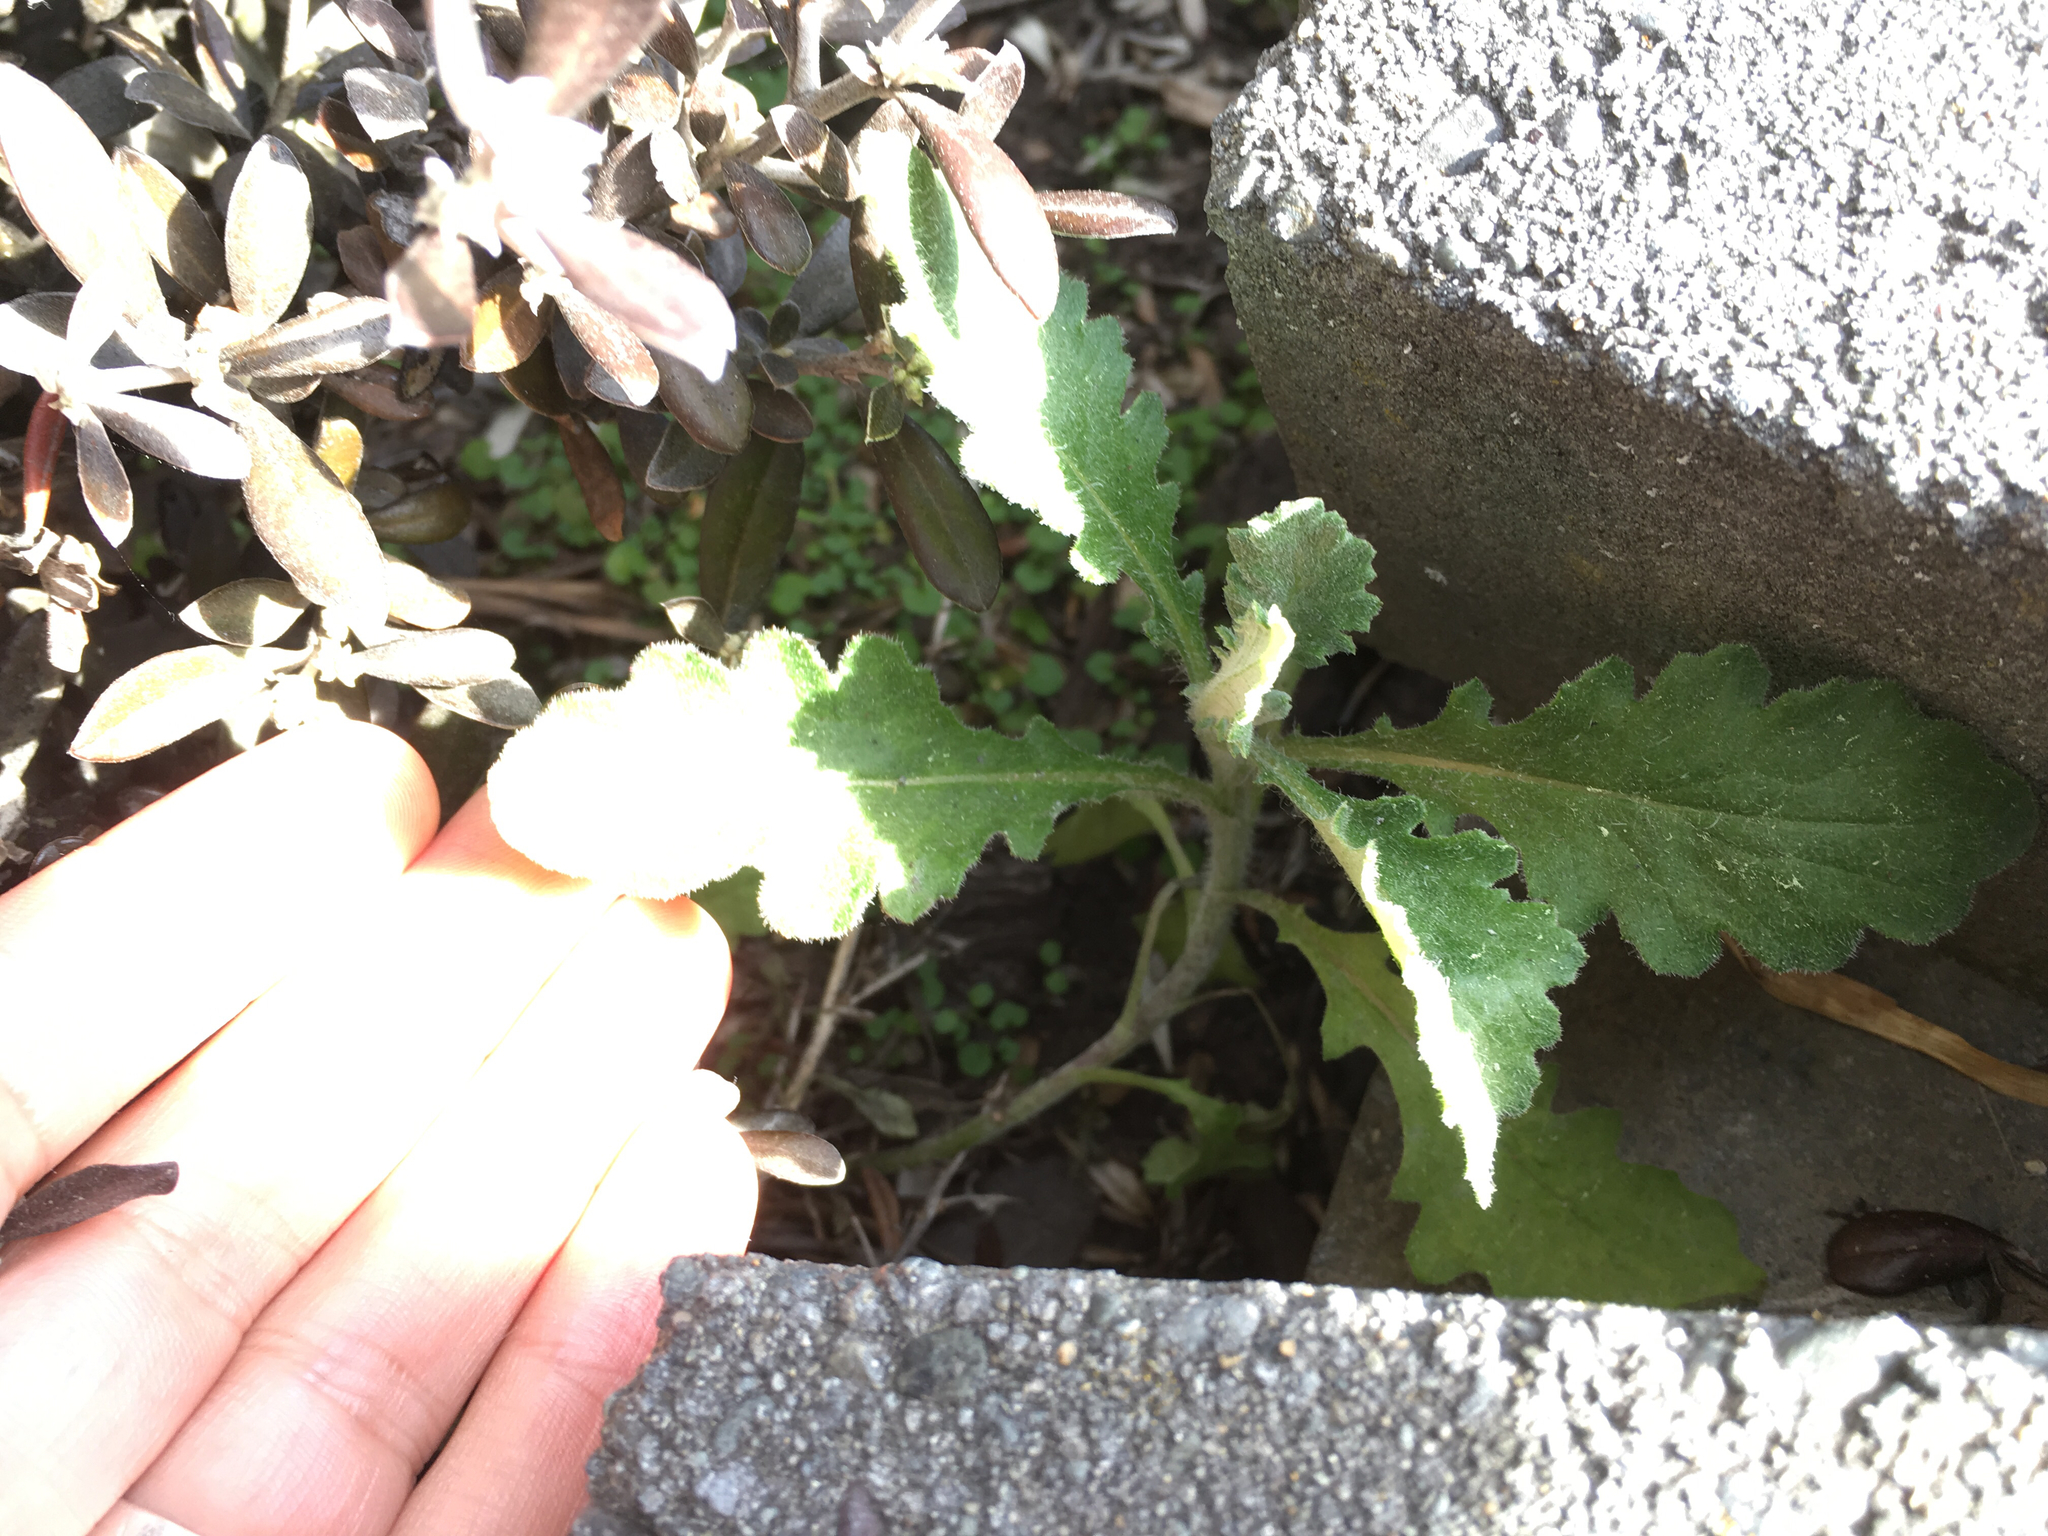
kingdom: Plantae
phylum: Tracheophyta
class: Magnoliopsida
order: Asterales
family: Asteraceae
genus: Senecio
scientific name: Senecio glomeratus
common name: Cutleaf burnweed
